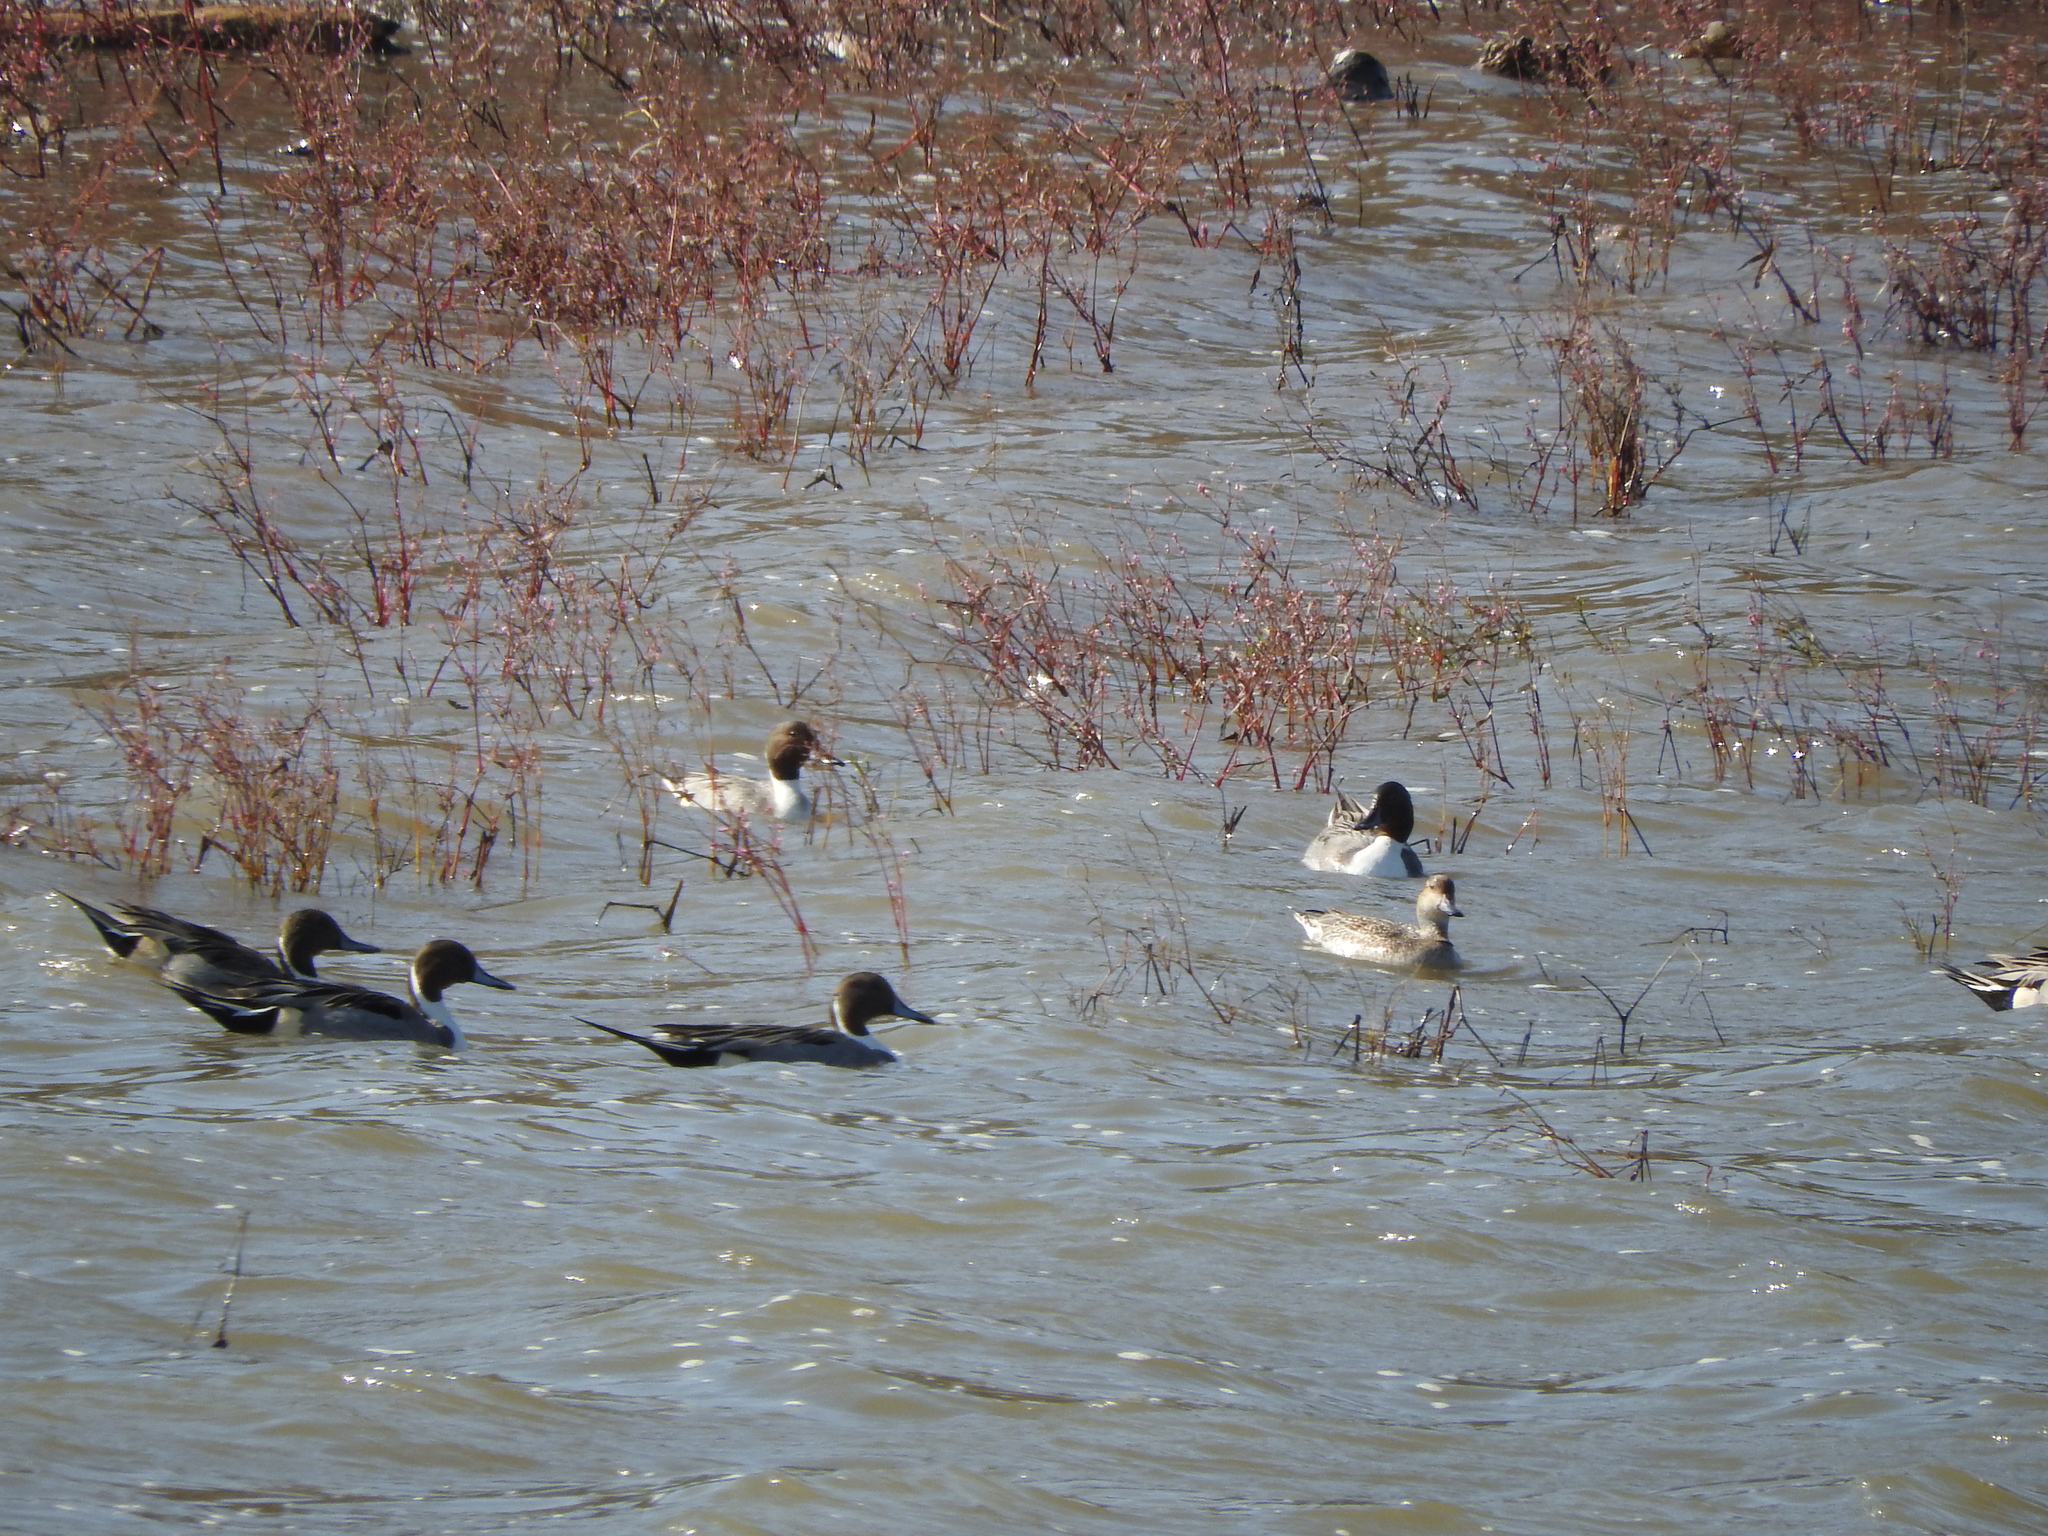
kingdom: Animalia
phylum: Chordata
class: Aves
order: Anseriformes
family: Anatidae
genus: Anas
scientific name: Anas acuta
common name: Northern pintail
